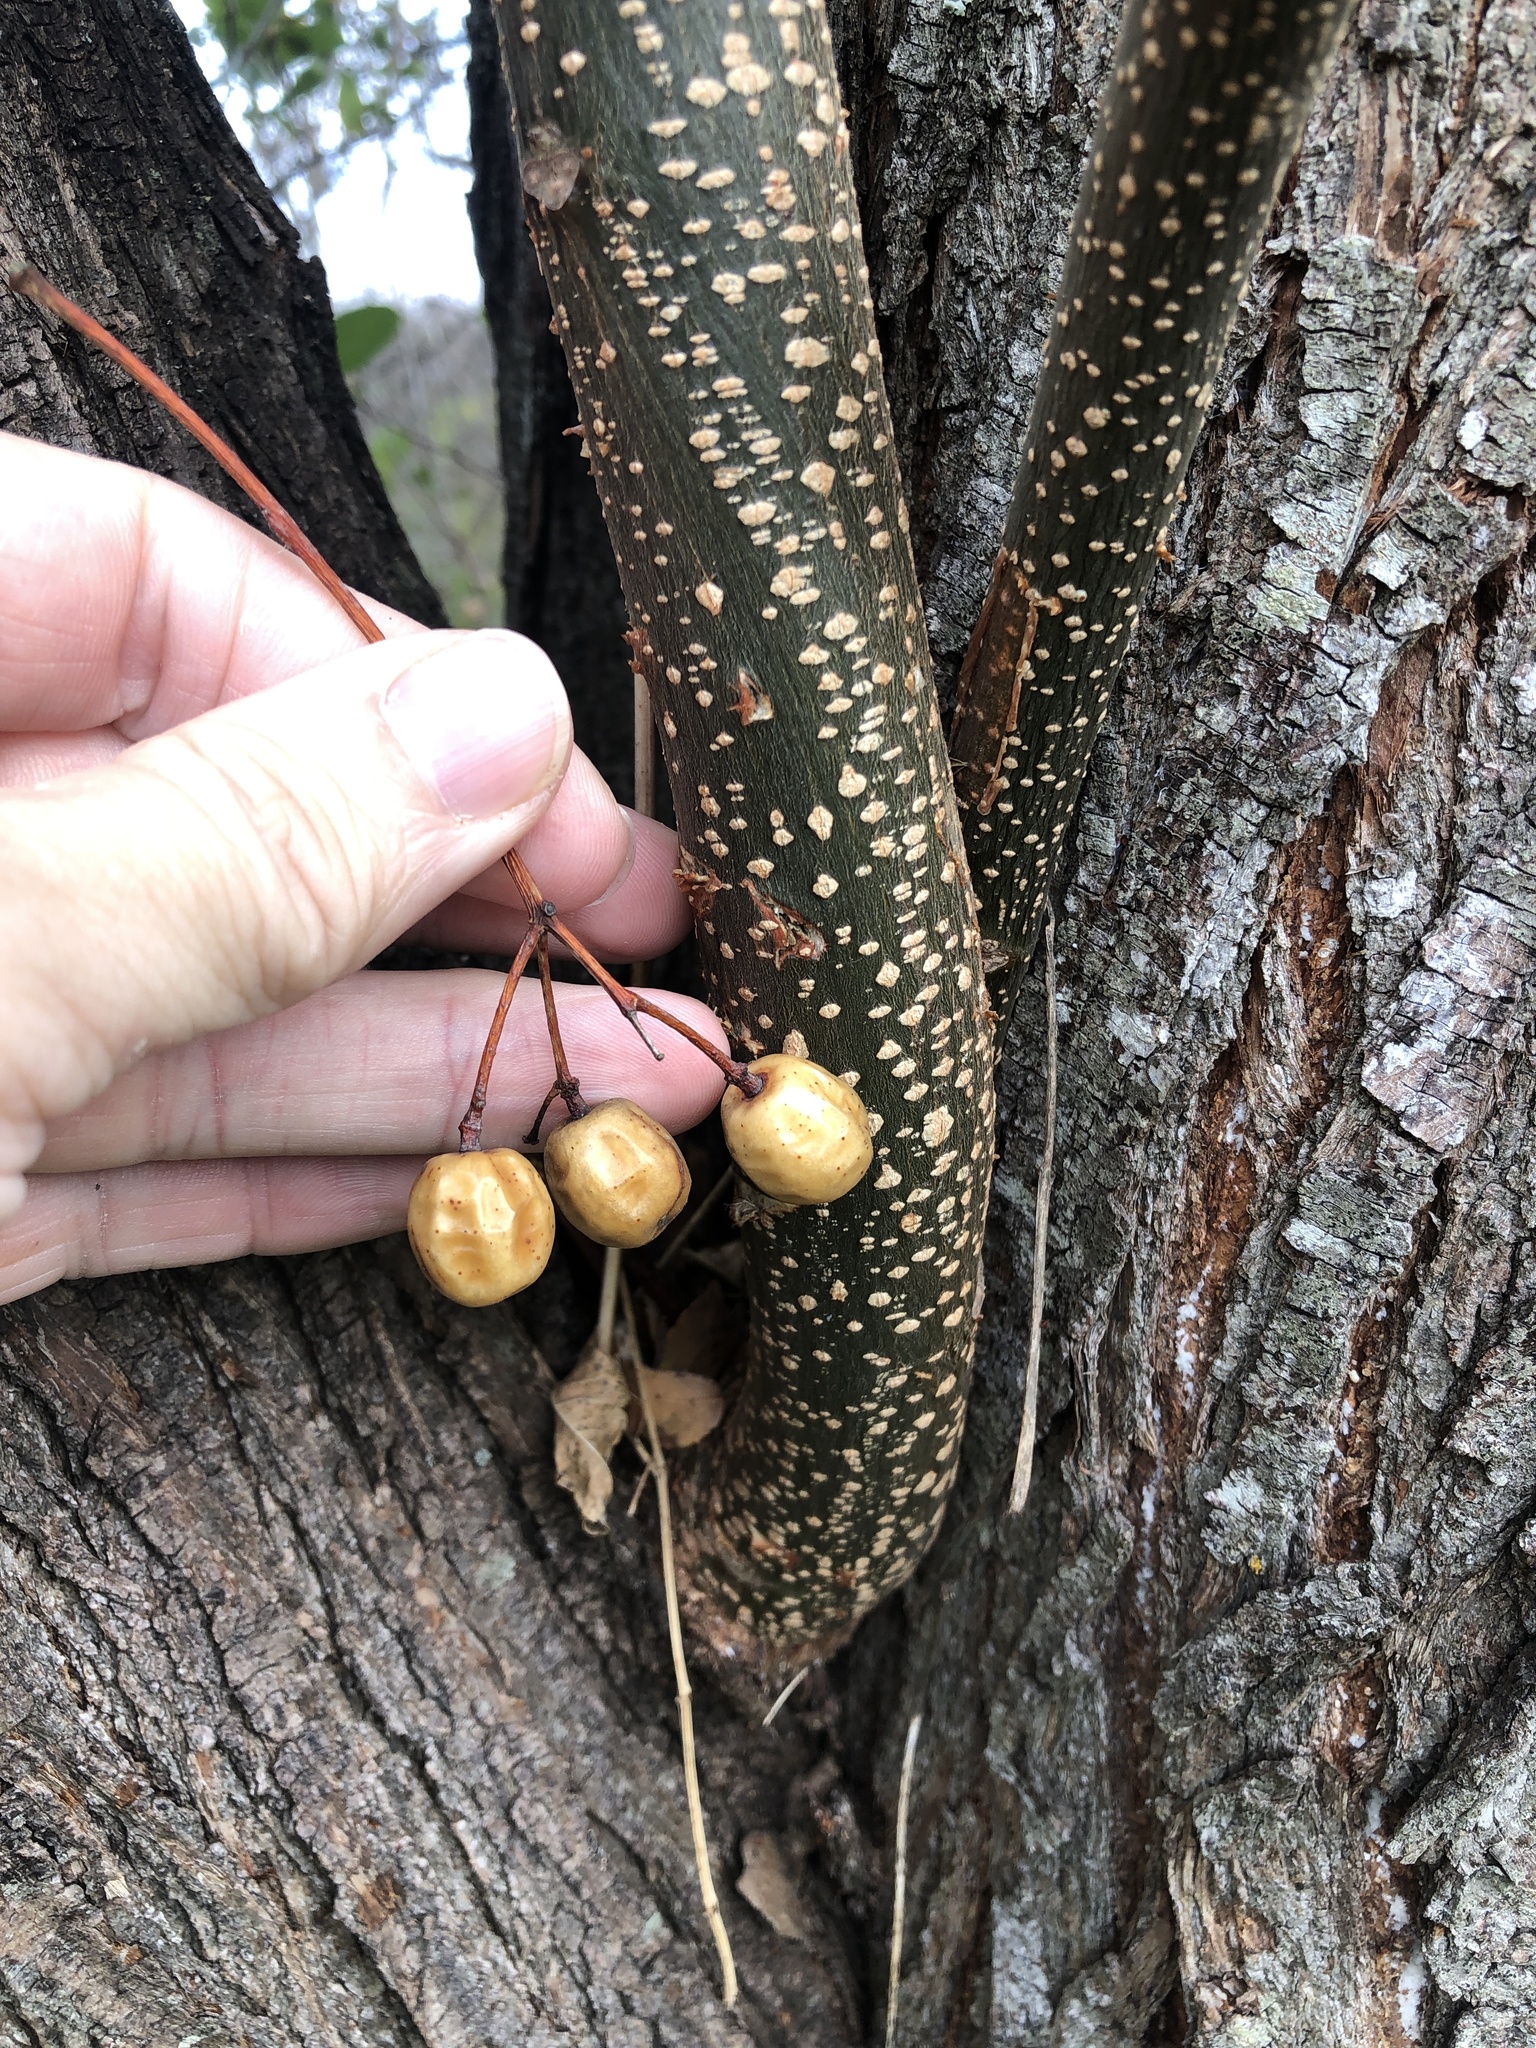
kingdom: Plantae
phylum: Tracheophyta
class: Magnoliopsida
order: Sapindales
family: Meliaceae
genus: Melia
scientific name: Melia azedarach
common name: Chinaberrytree
